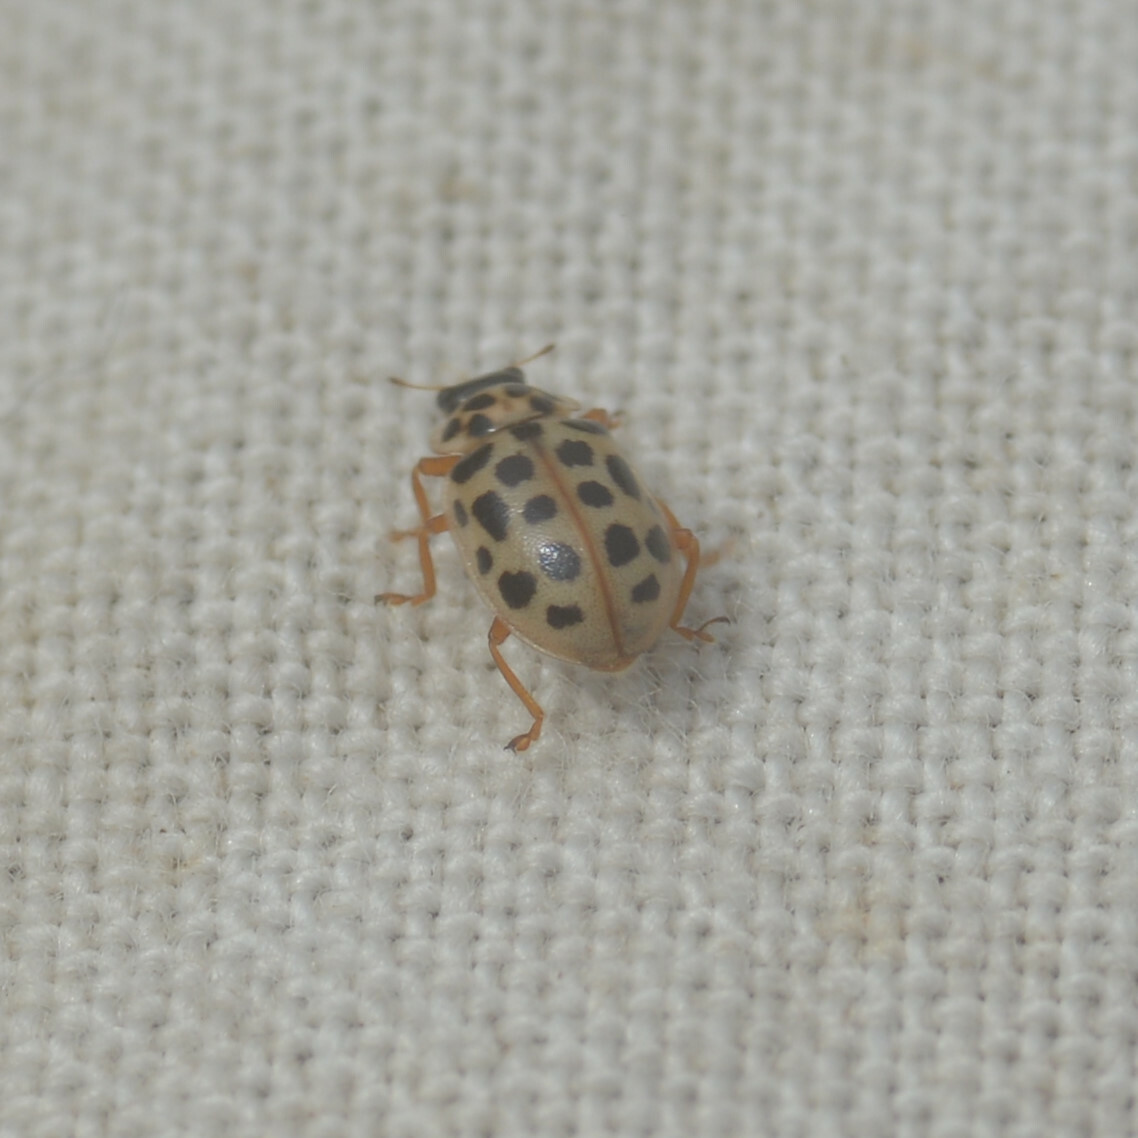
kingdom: Animalia
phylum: Arthropoda
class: Insecta
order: Coleoptera
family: Coccinellidae
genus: Anisosticta
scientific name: Anisosticta novemdecimpunctata
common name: Water ladybird
